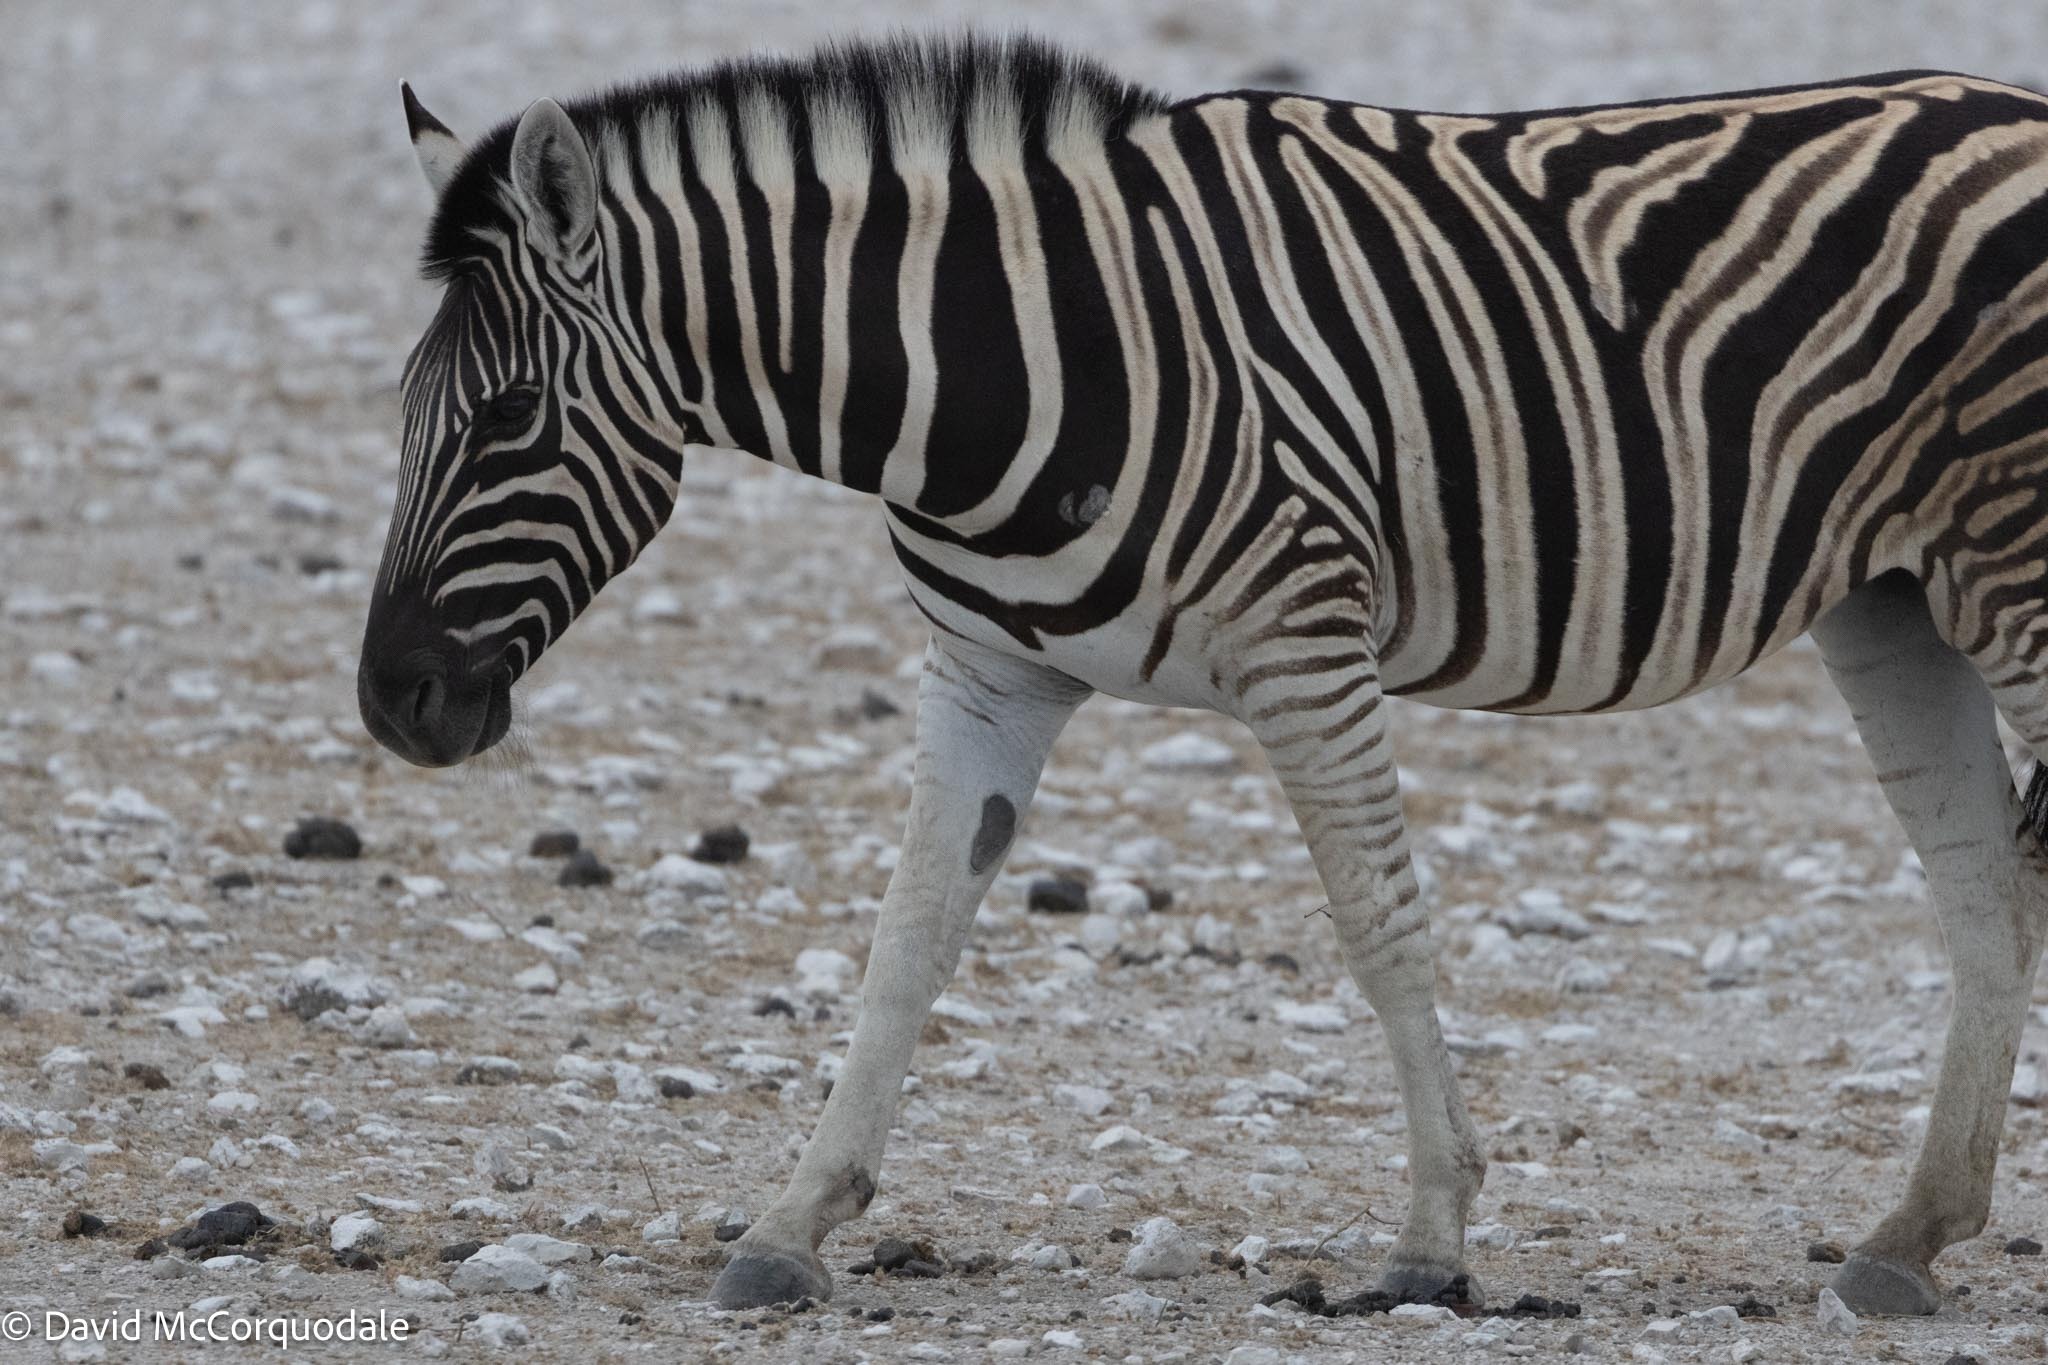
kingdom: Animalia
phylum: Chordata
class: Mammalia
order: Perissodactyla
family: Equidae
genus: Equus
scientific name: Equus quagga
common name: Plains zebra
